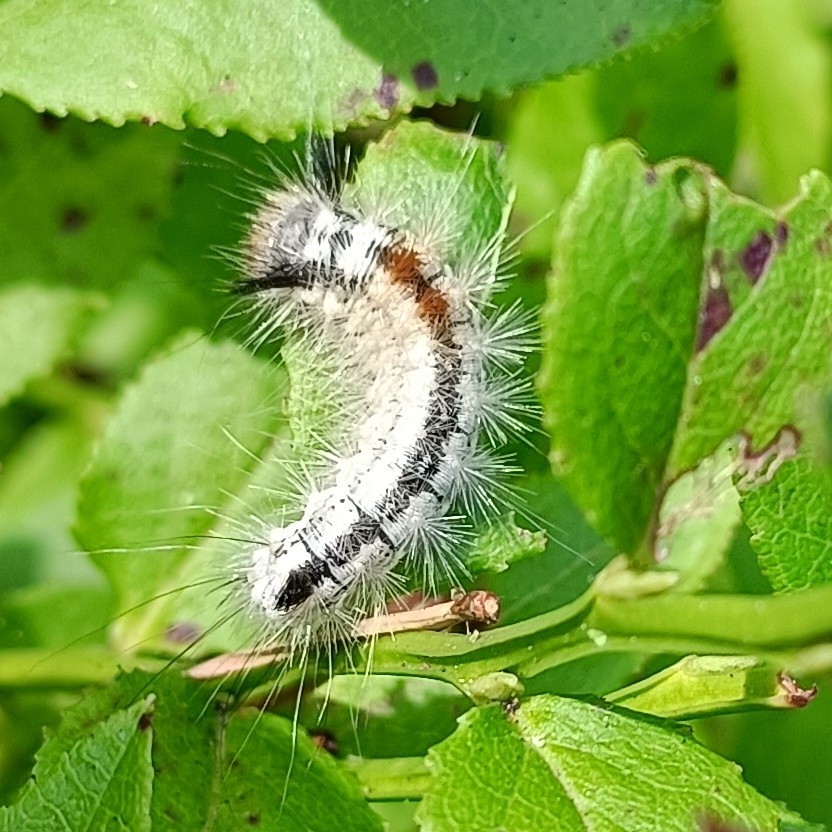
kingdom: Animalia
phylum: Arthropoda
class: Insecta
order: Lepidoptera
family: Noctuidae
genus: Colocasia
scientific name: Colocasia coryli
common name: Nut-tree tussock
